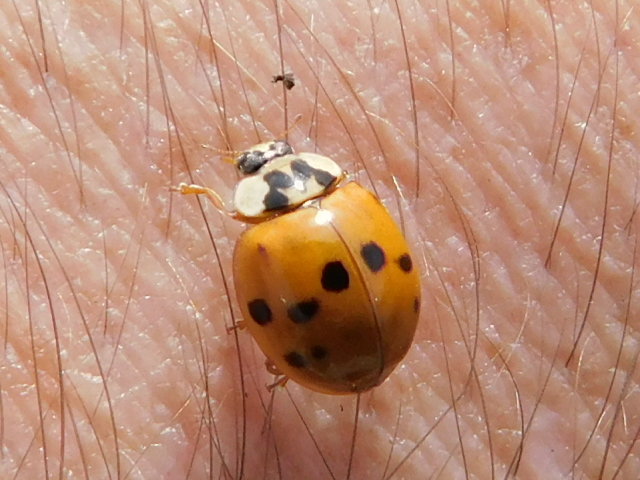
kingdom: Animalia
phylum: Arthropoda
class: Insecta
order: Coleoptera
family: Coccinellidae
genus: Harmonia
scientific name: Harmonia axyridis
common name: Harlequin ladybird
